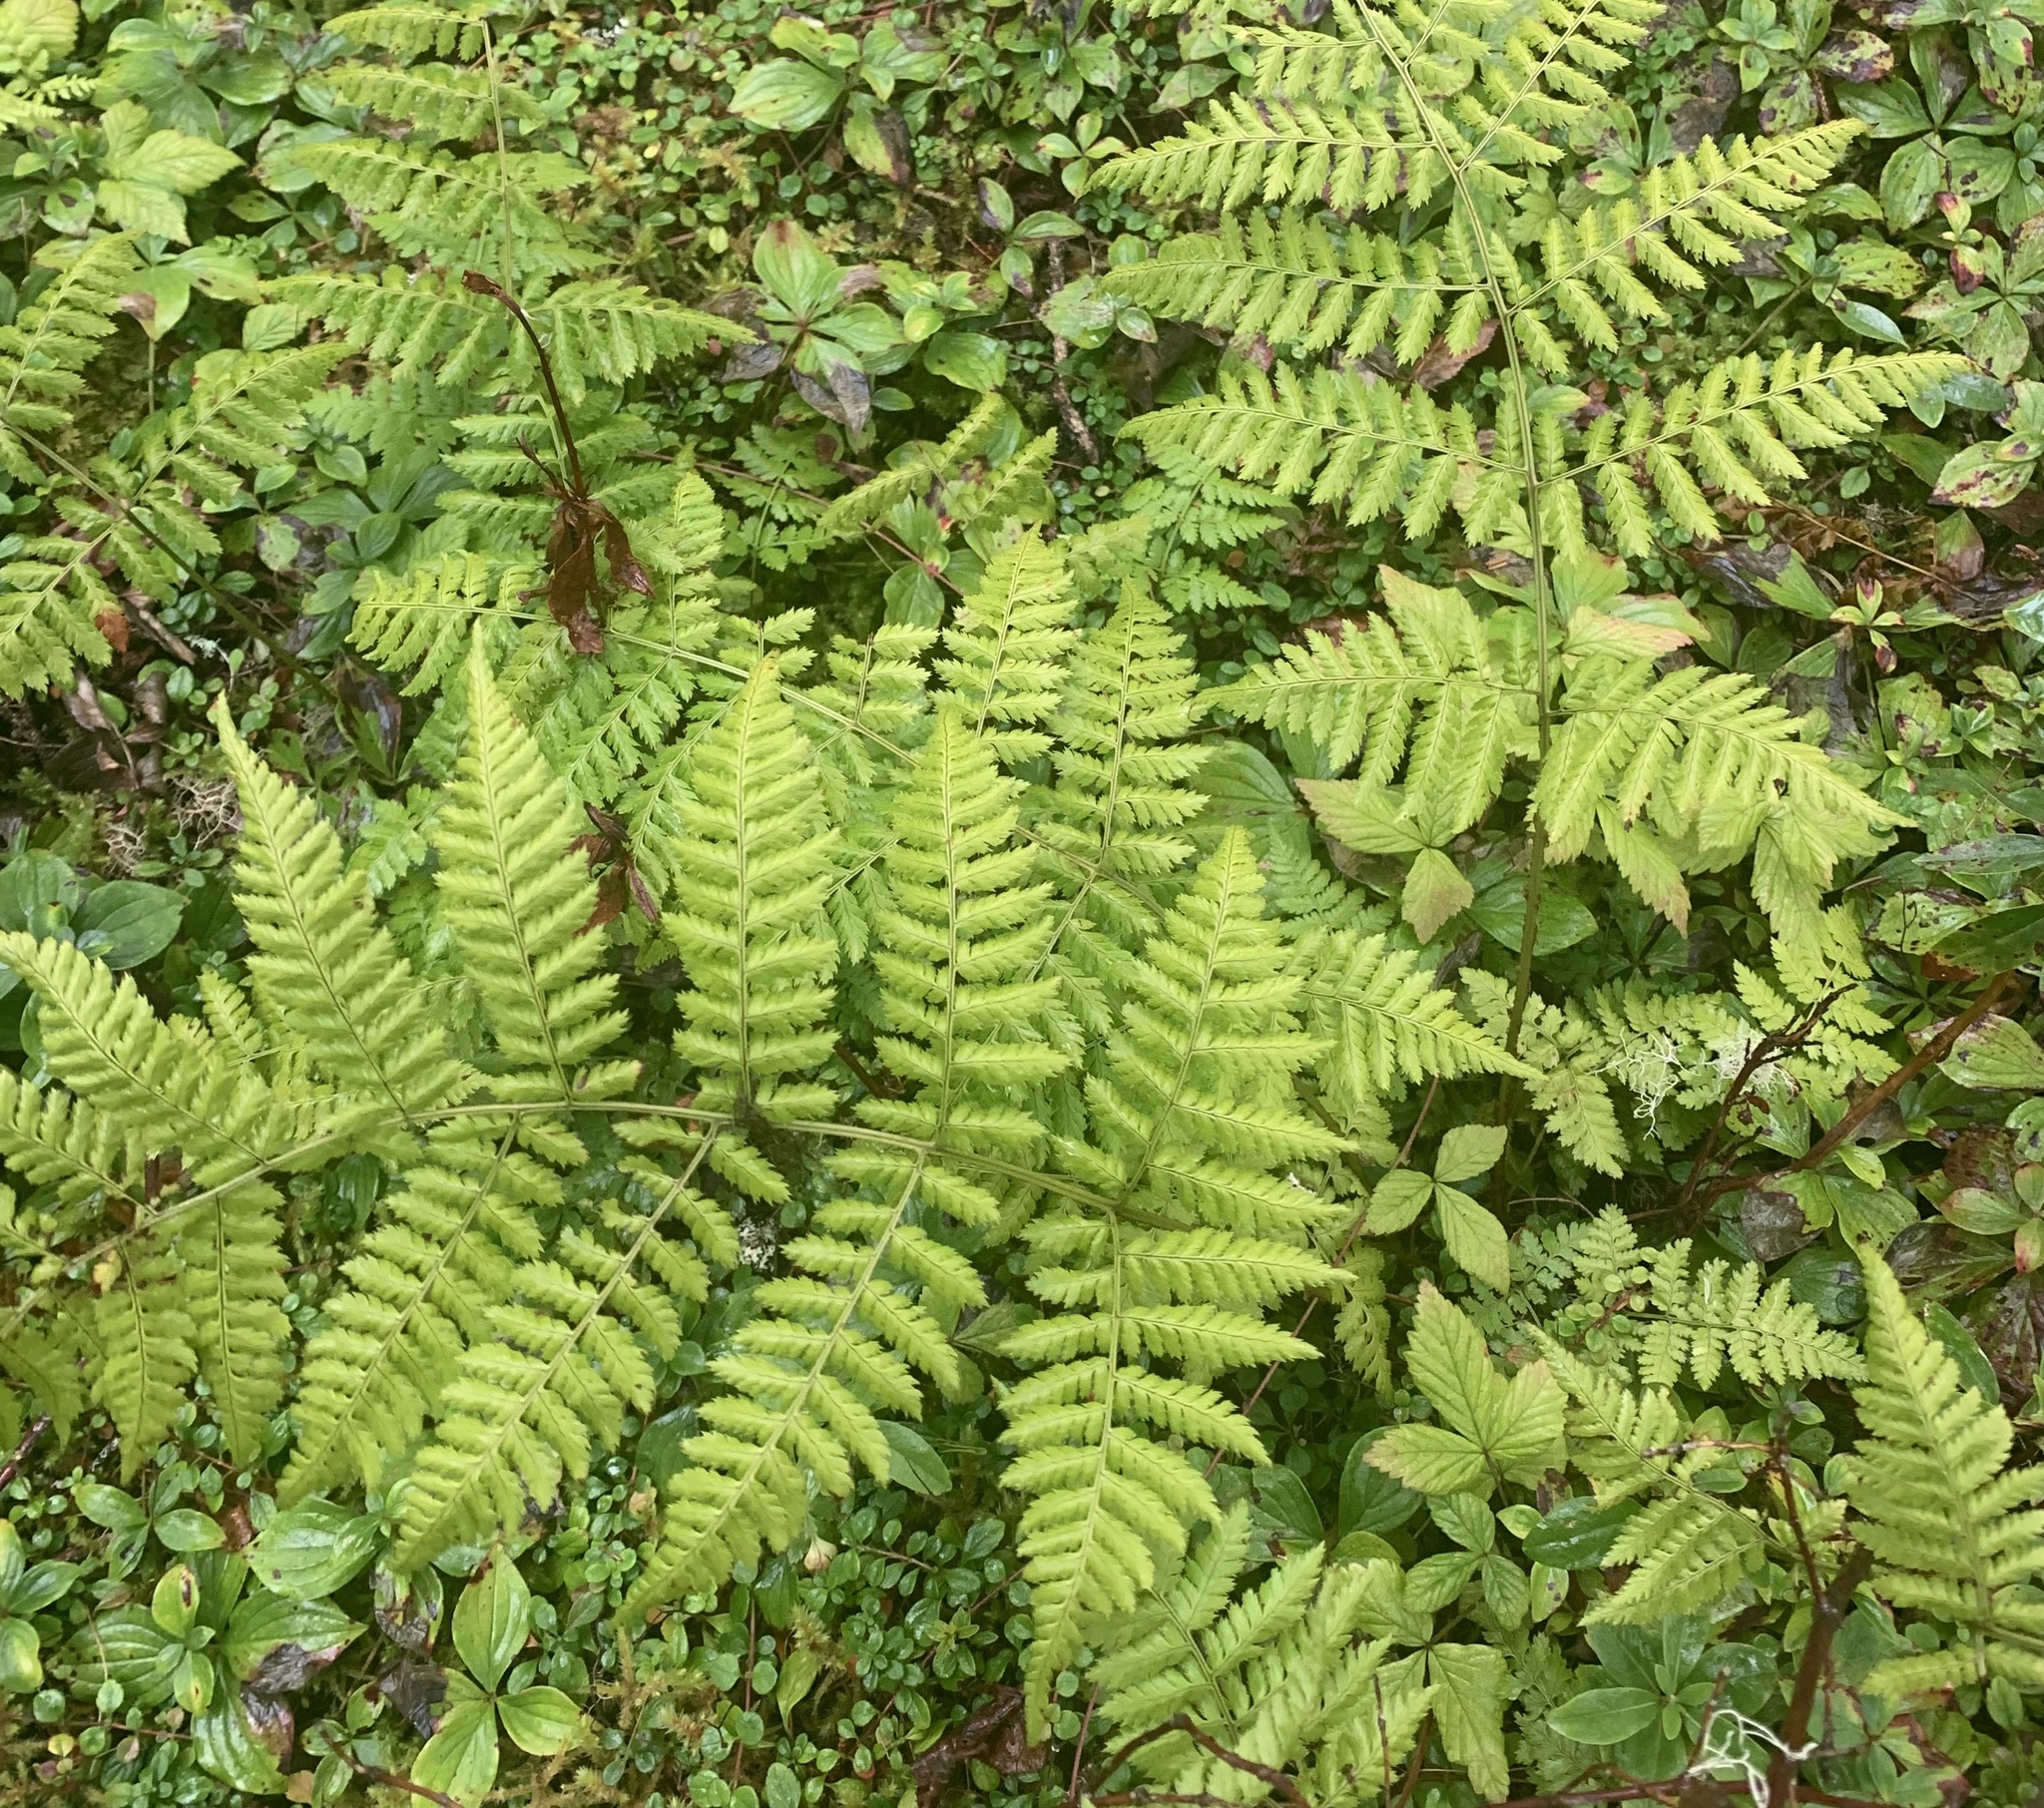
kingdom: Plantae
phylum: Tracheophyta
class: Polypodiopsida
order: Polypodiales
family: Dryopteridaceae
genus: Dryopteris
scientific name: Dryopteris campyloptera
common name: Mountain wood fern
